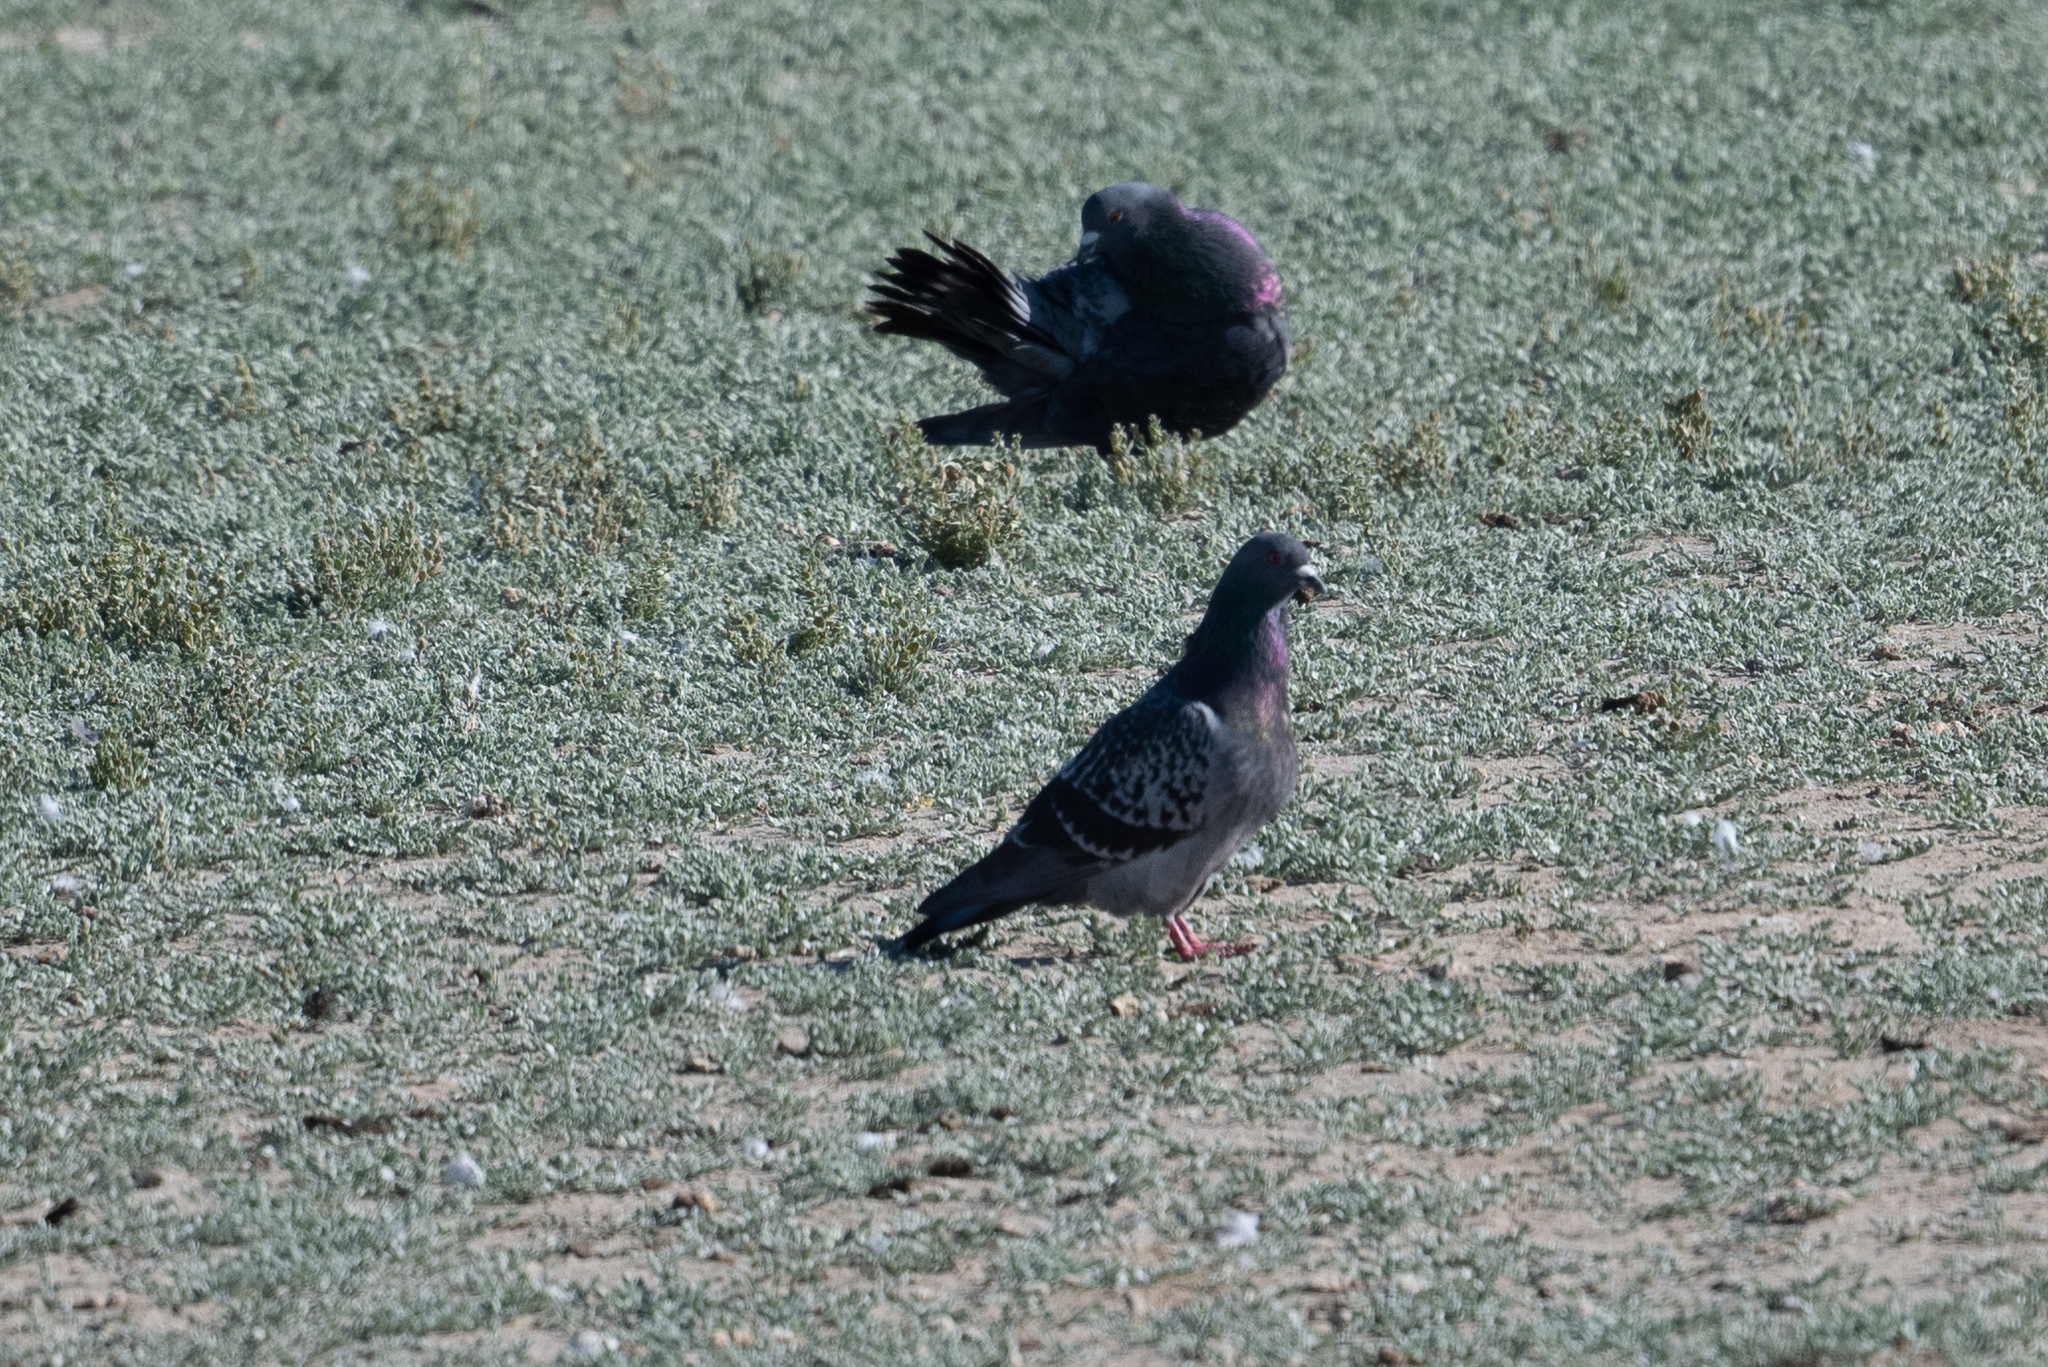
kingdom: Animalia
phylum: Chordata
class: Aves
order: Columbiformes
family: Columbidae
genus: Columba
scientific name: Columba livia
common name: Rock pigeon
